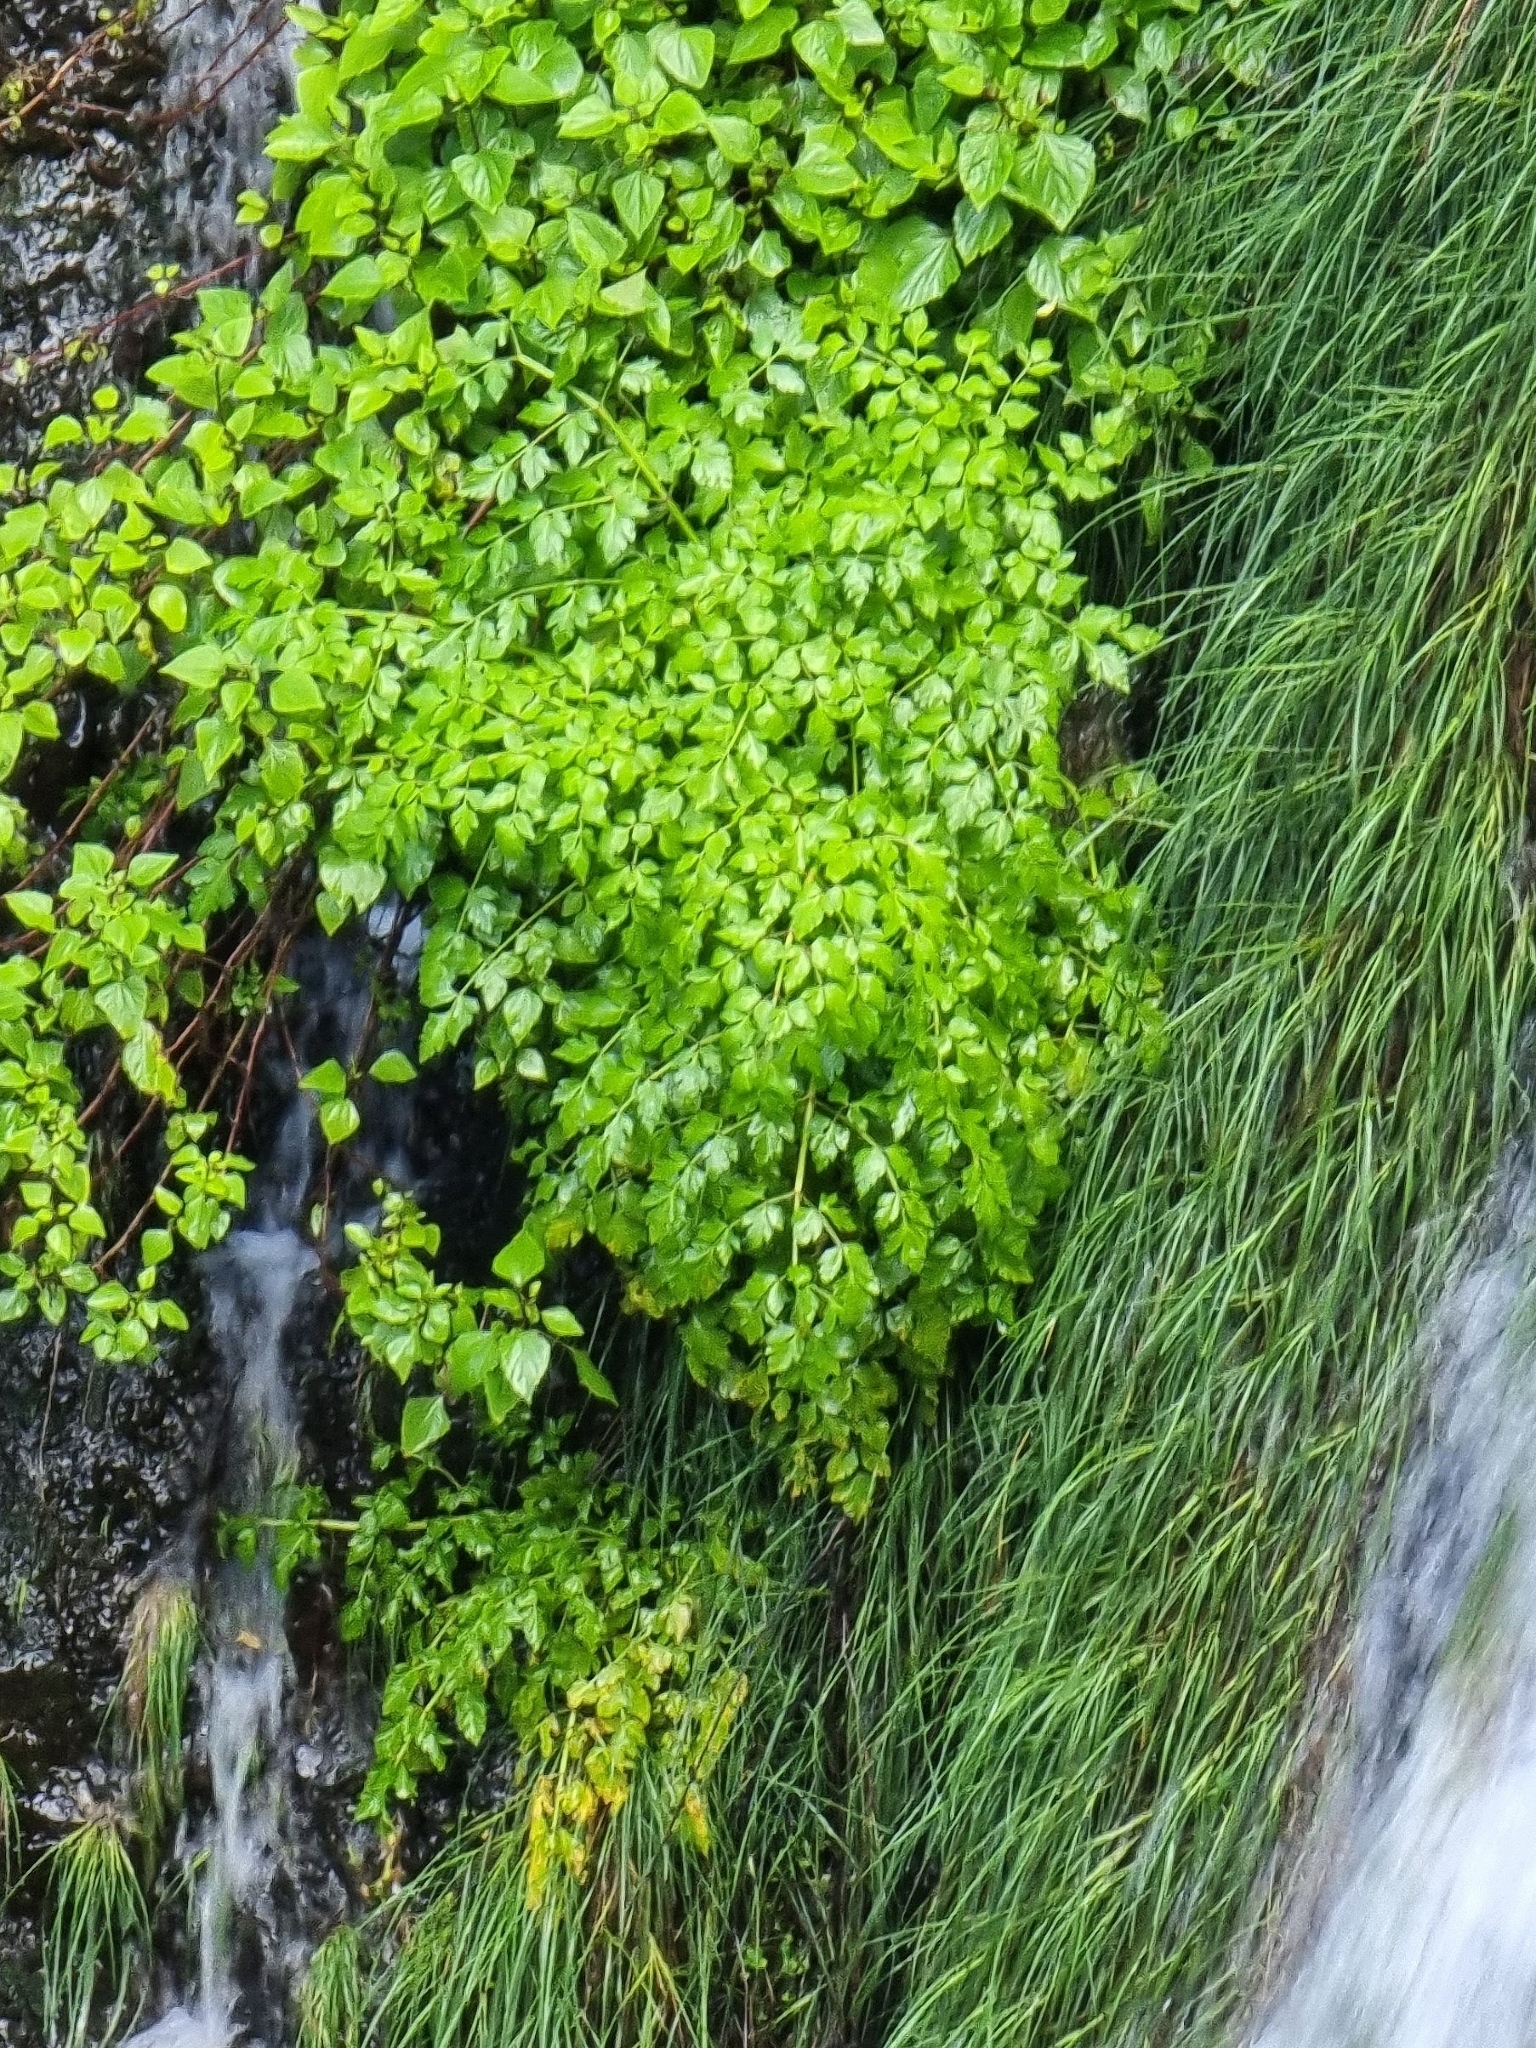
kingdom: Plantae
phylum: Tracheophyta
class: Magnoliopsida
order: Apiales
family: Apiaceae
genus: Oenanthe
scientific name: Oenanthe divaricata
